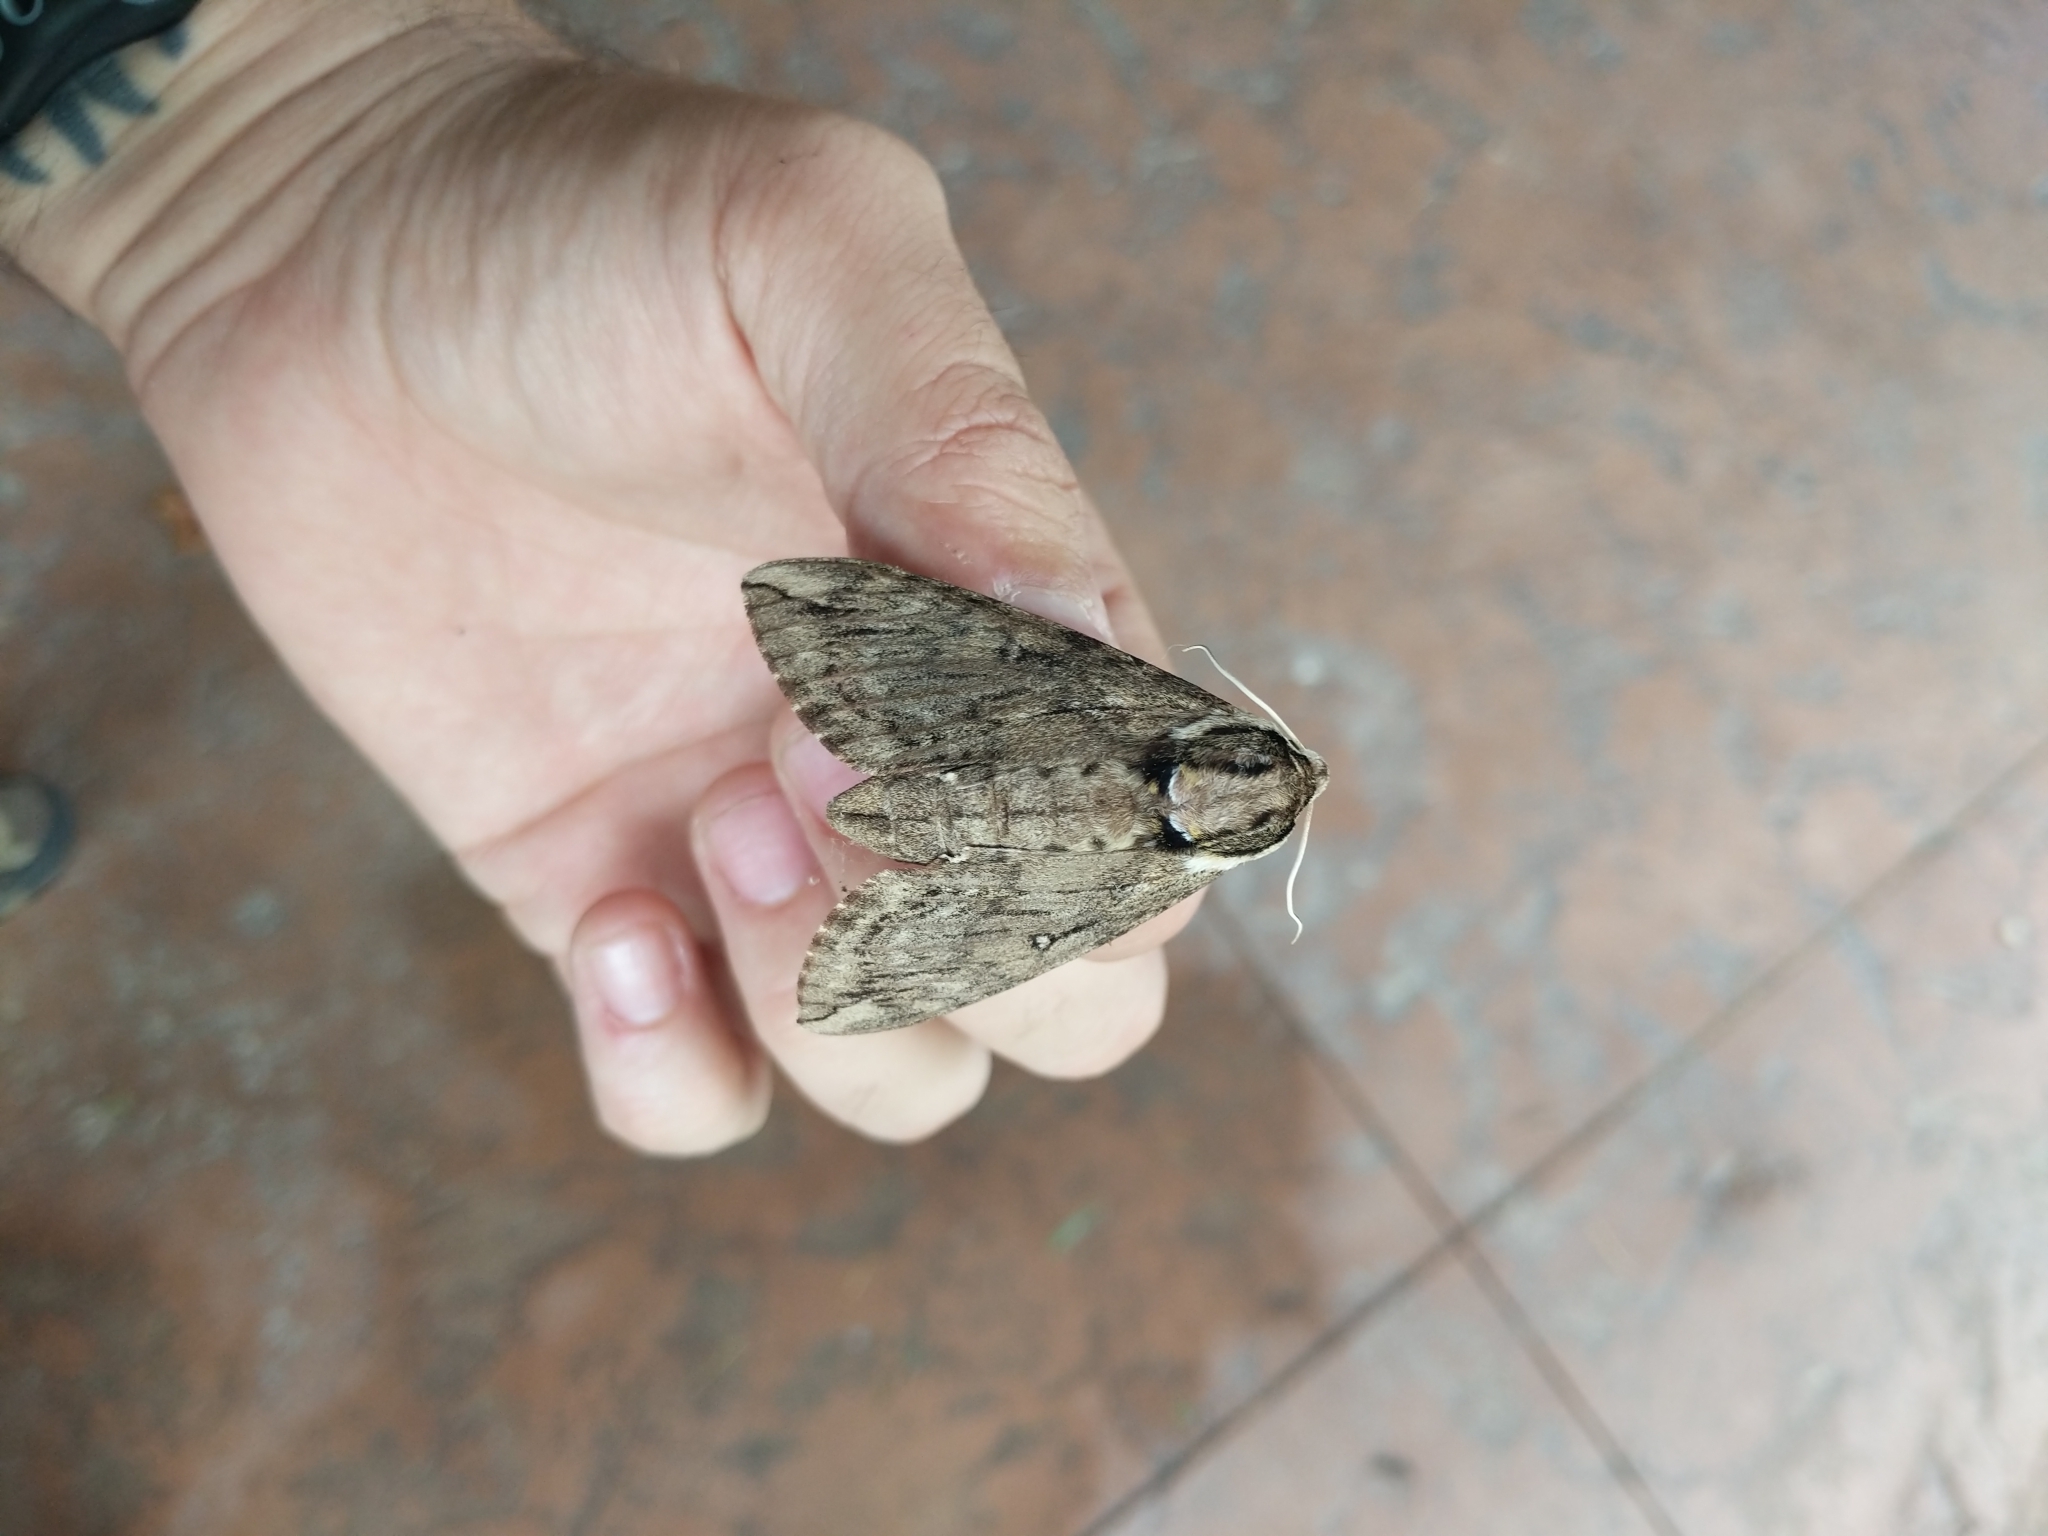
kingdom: Animalia
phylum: Arthropoda
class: Insecta
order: Lepidoptera
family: Sphingidae
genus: Ceratomia
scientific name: Ceratomia undulosa
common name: Waved sphinx
